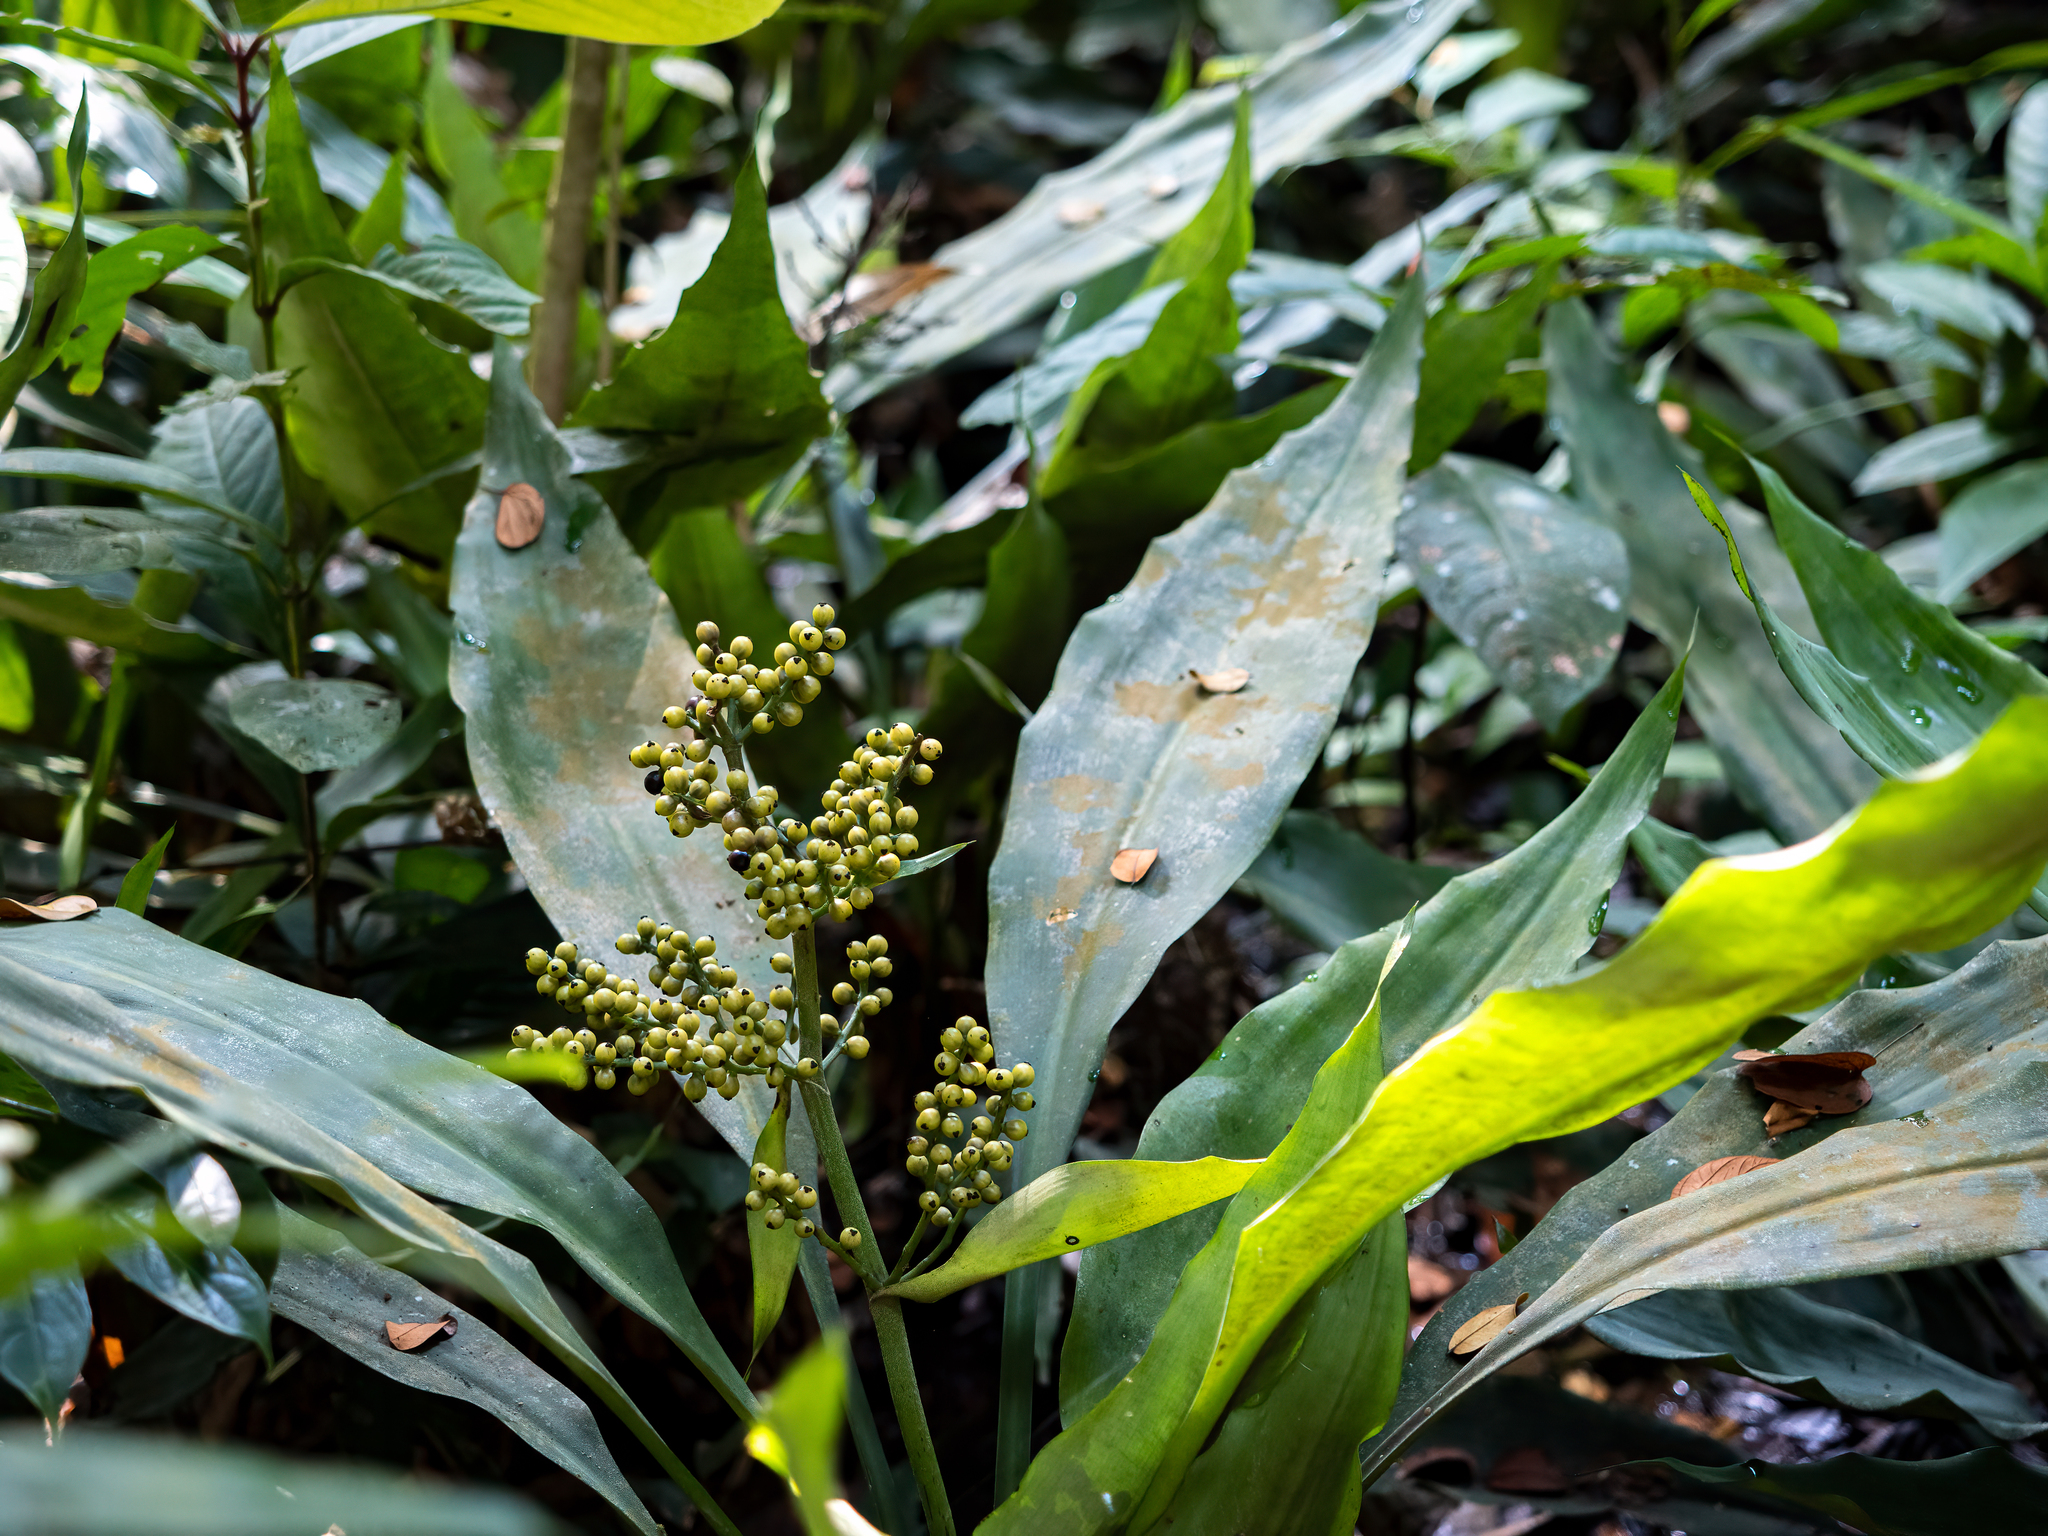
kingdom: Plantae
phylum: Tracheophyta
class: Liliopsida
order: Commelinales
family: Hanguanaceae
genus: Hanguana
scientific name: Hanguana neglecta
